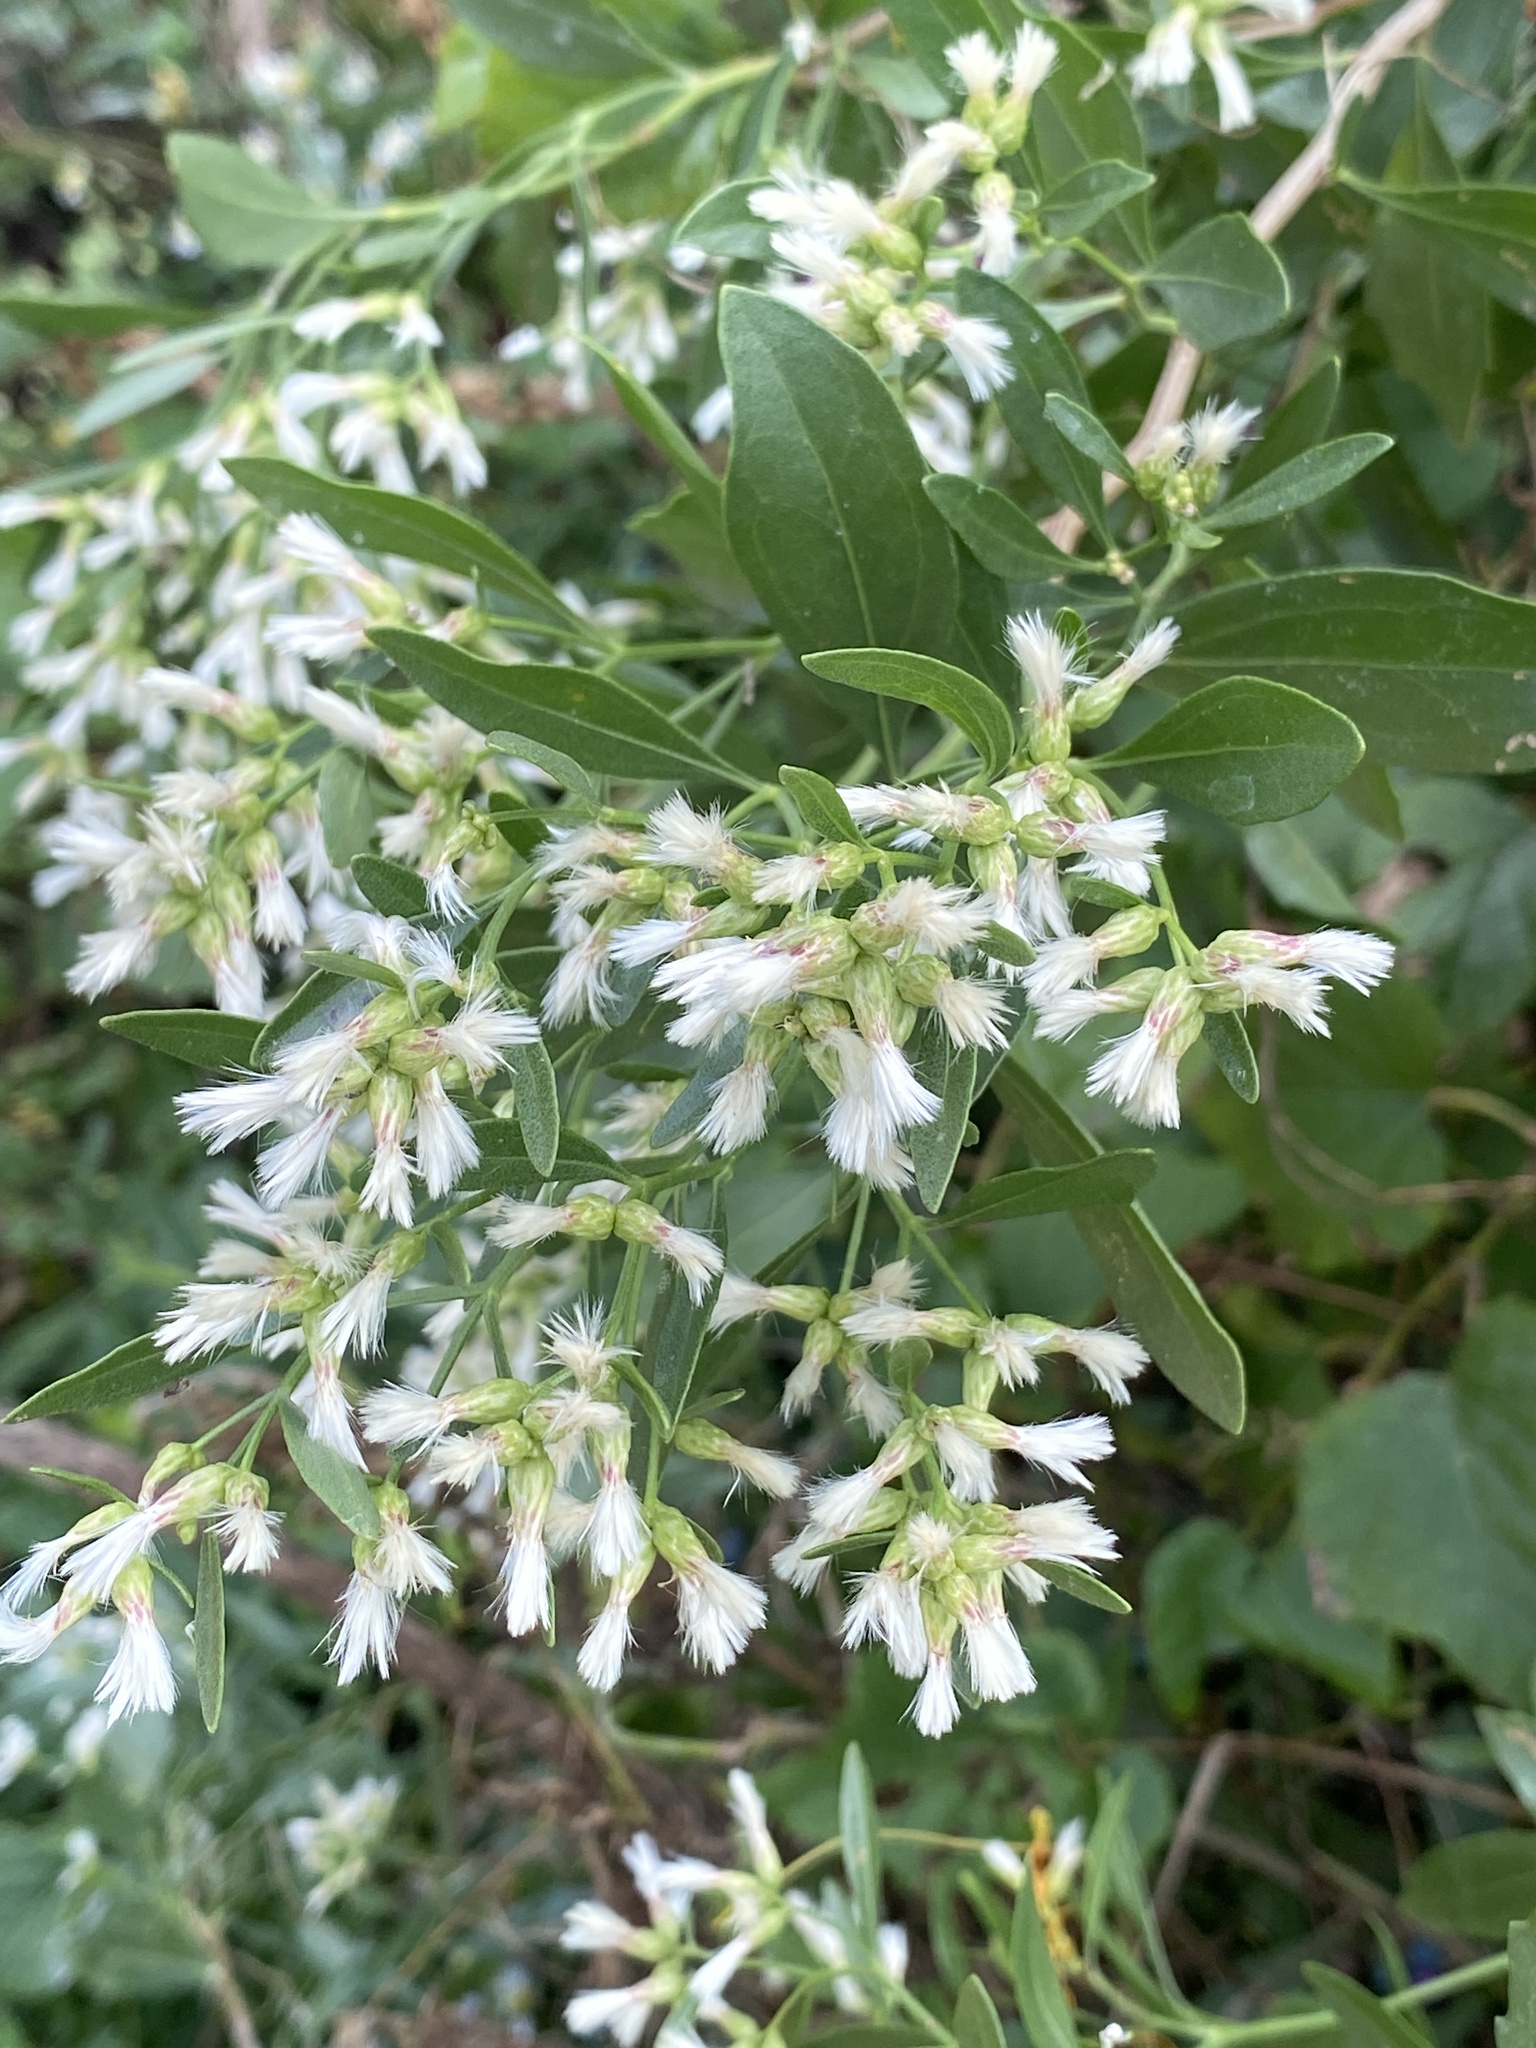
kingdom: Plantae
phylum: Tracheophyta
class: Magnoliopsida
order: Asterales
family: Asteraceae
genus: Baccharis
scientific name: Baccharis halimifolia
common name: Eastern baccharis
